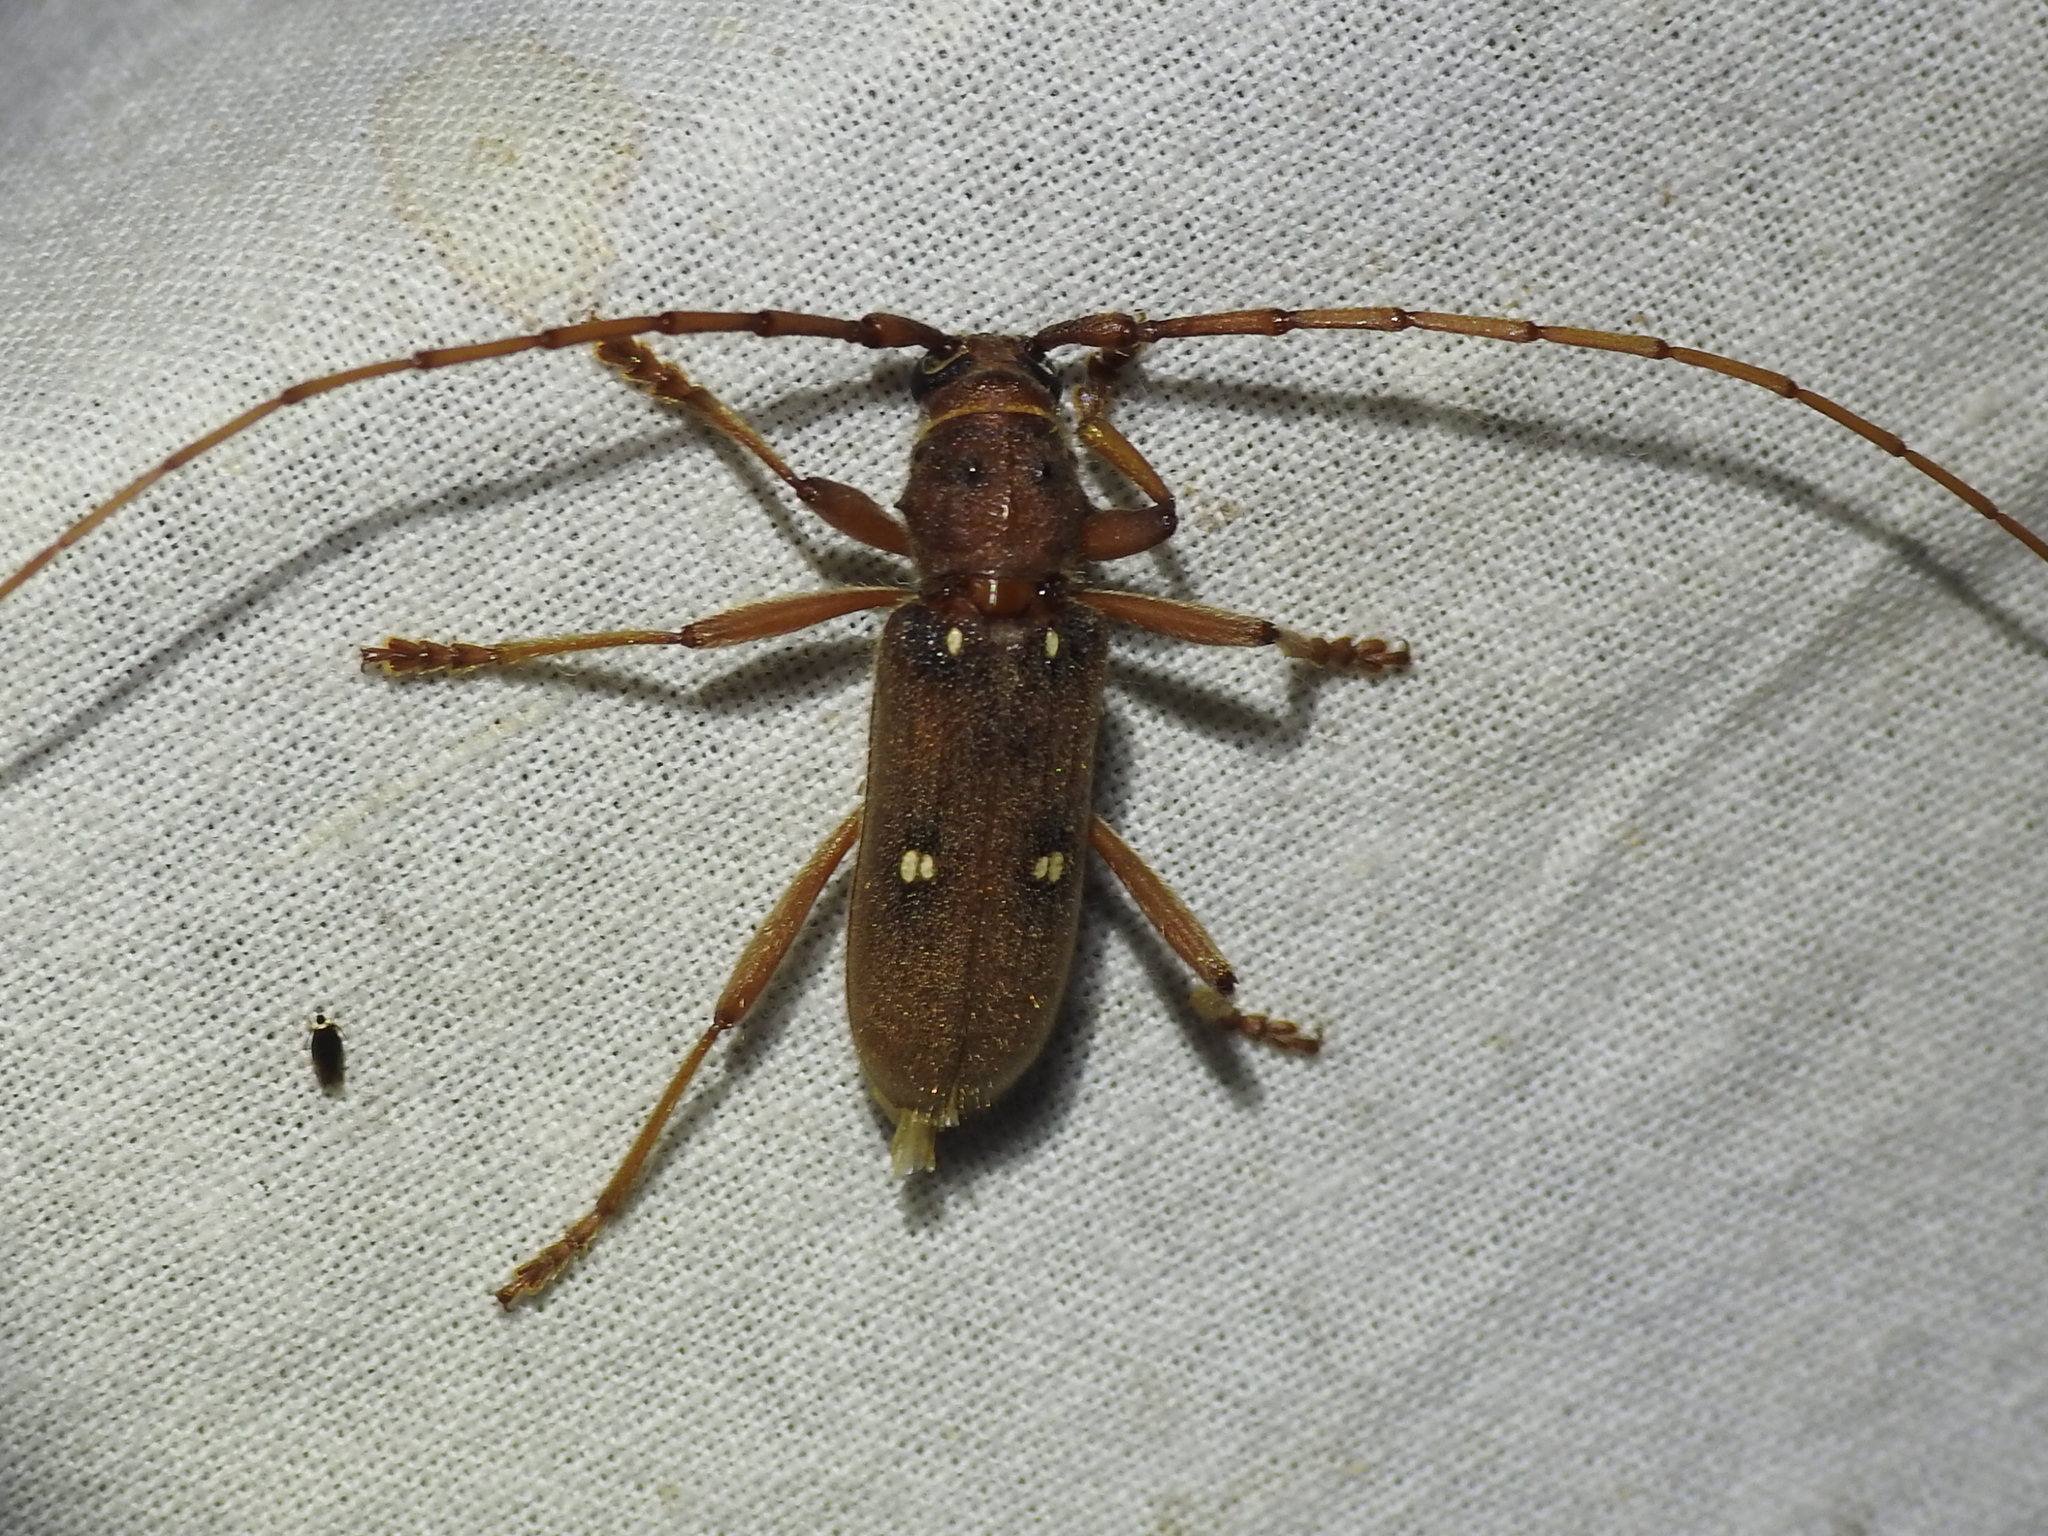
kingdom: Animalia
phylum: Arthropoda
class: Insecta
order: Coleoptera
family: Cerambycidae
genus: Eburia
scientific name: Eburia haldemani
